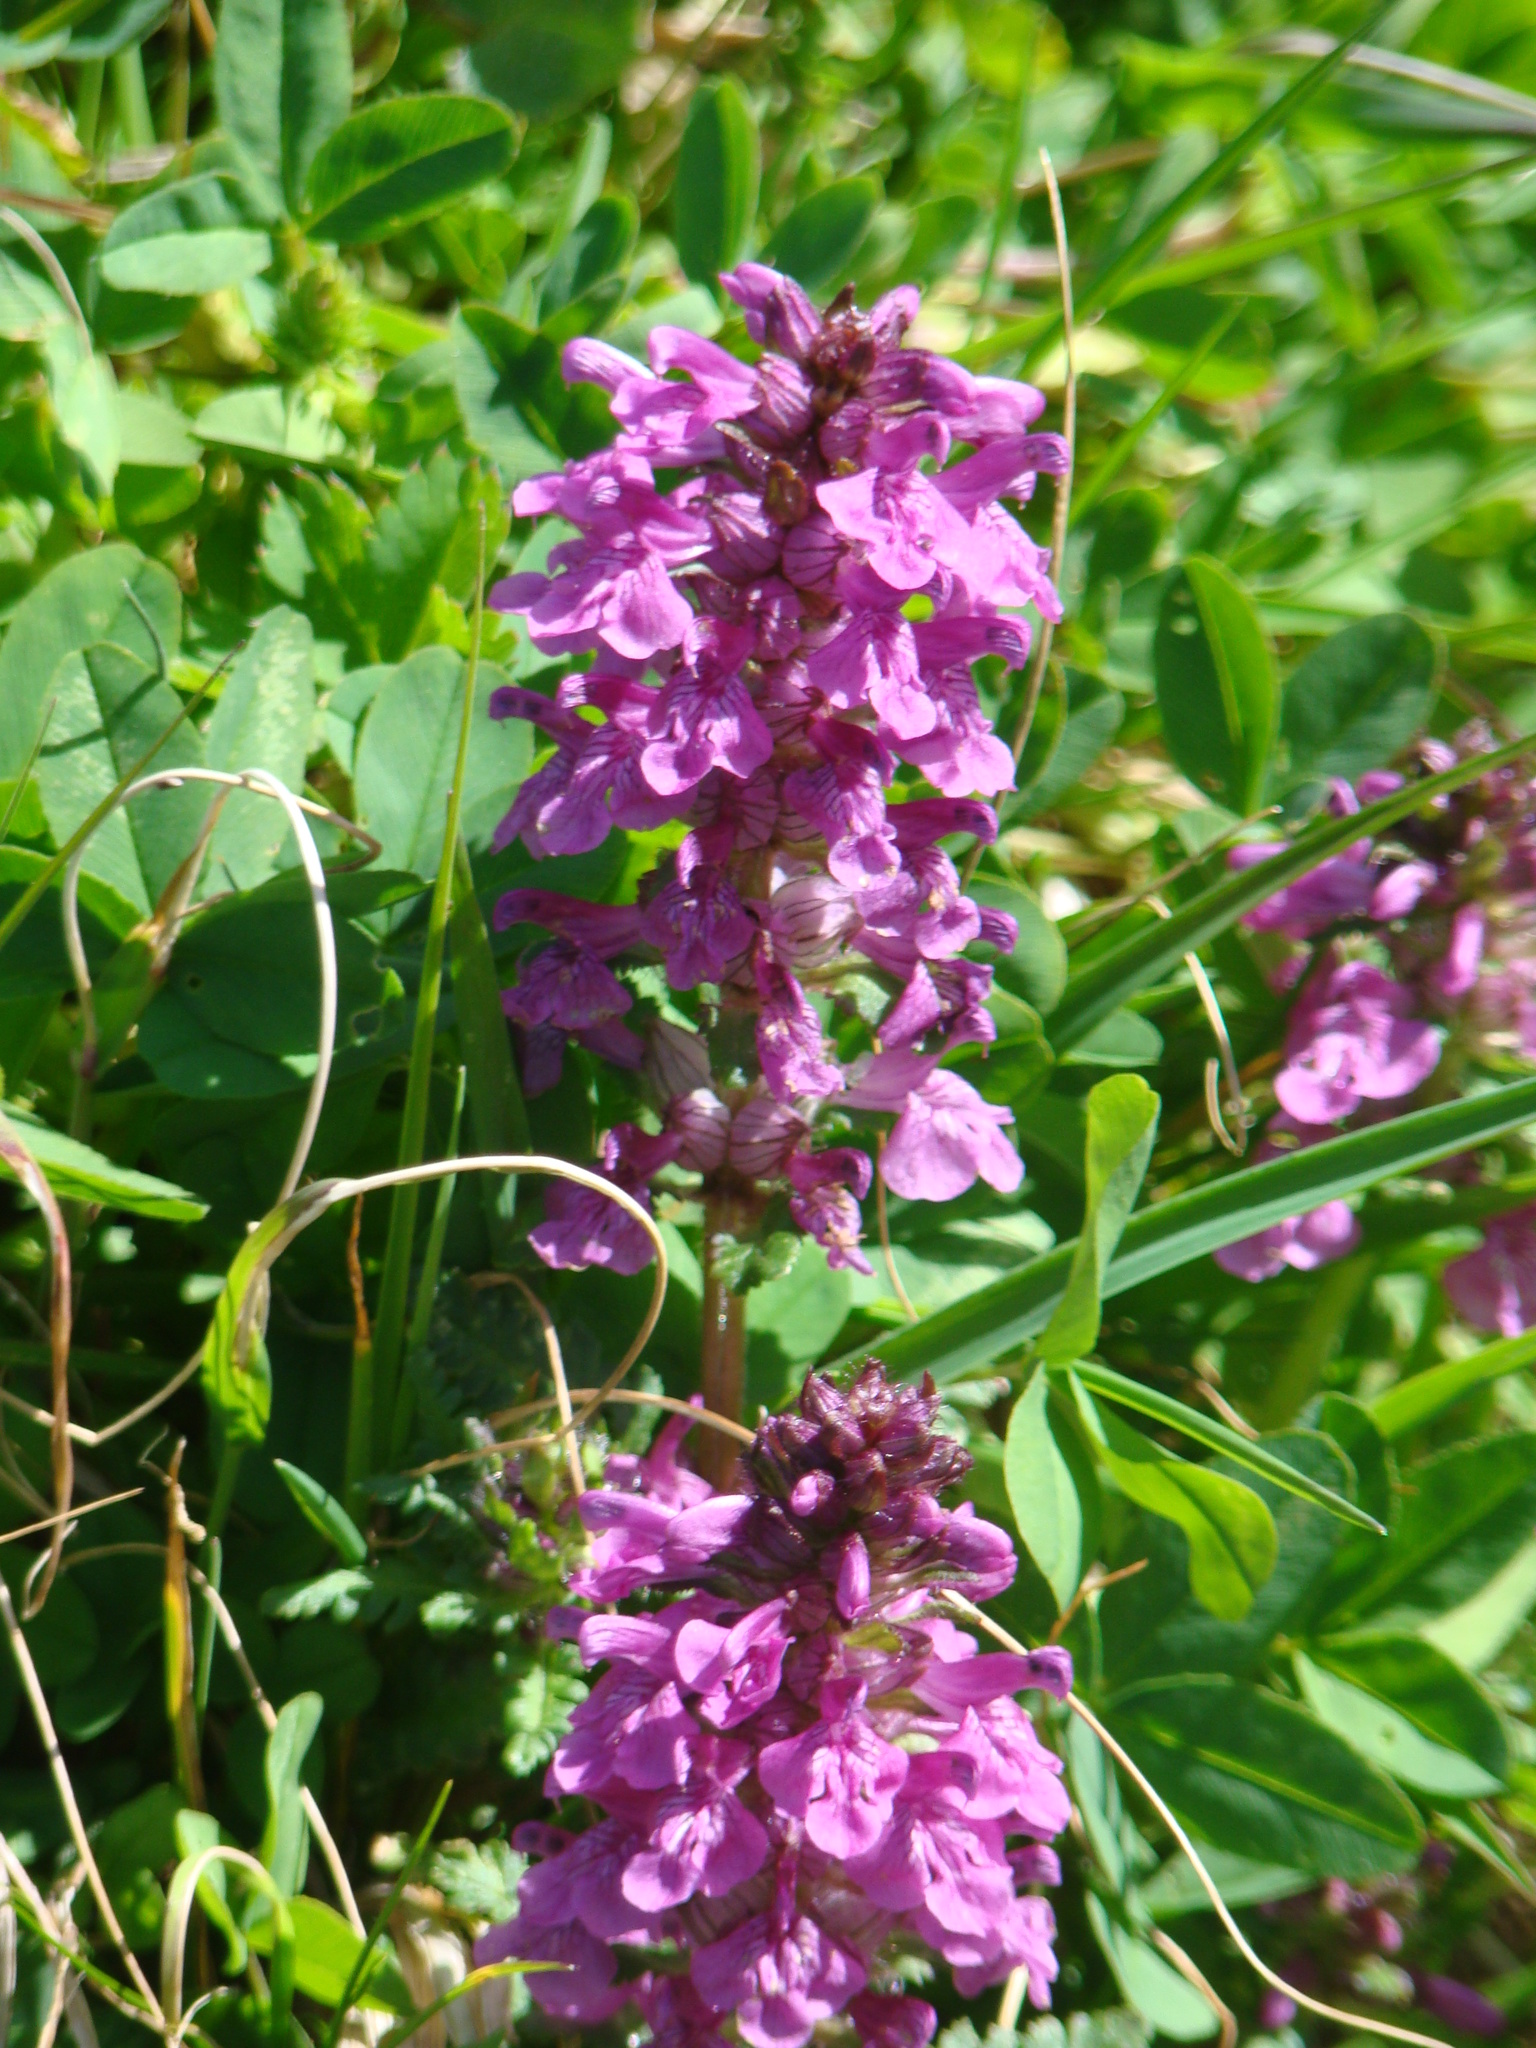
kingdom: Plantae
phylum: Tracheophyta
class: Magnoliopsida
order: Lamiales
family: Orobanchaceae
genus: Pedicularis
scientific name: Pedicularis verticillata
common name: Whorled lousewort
